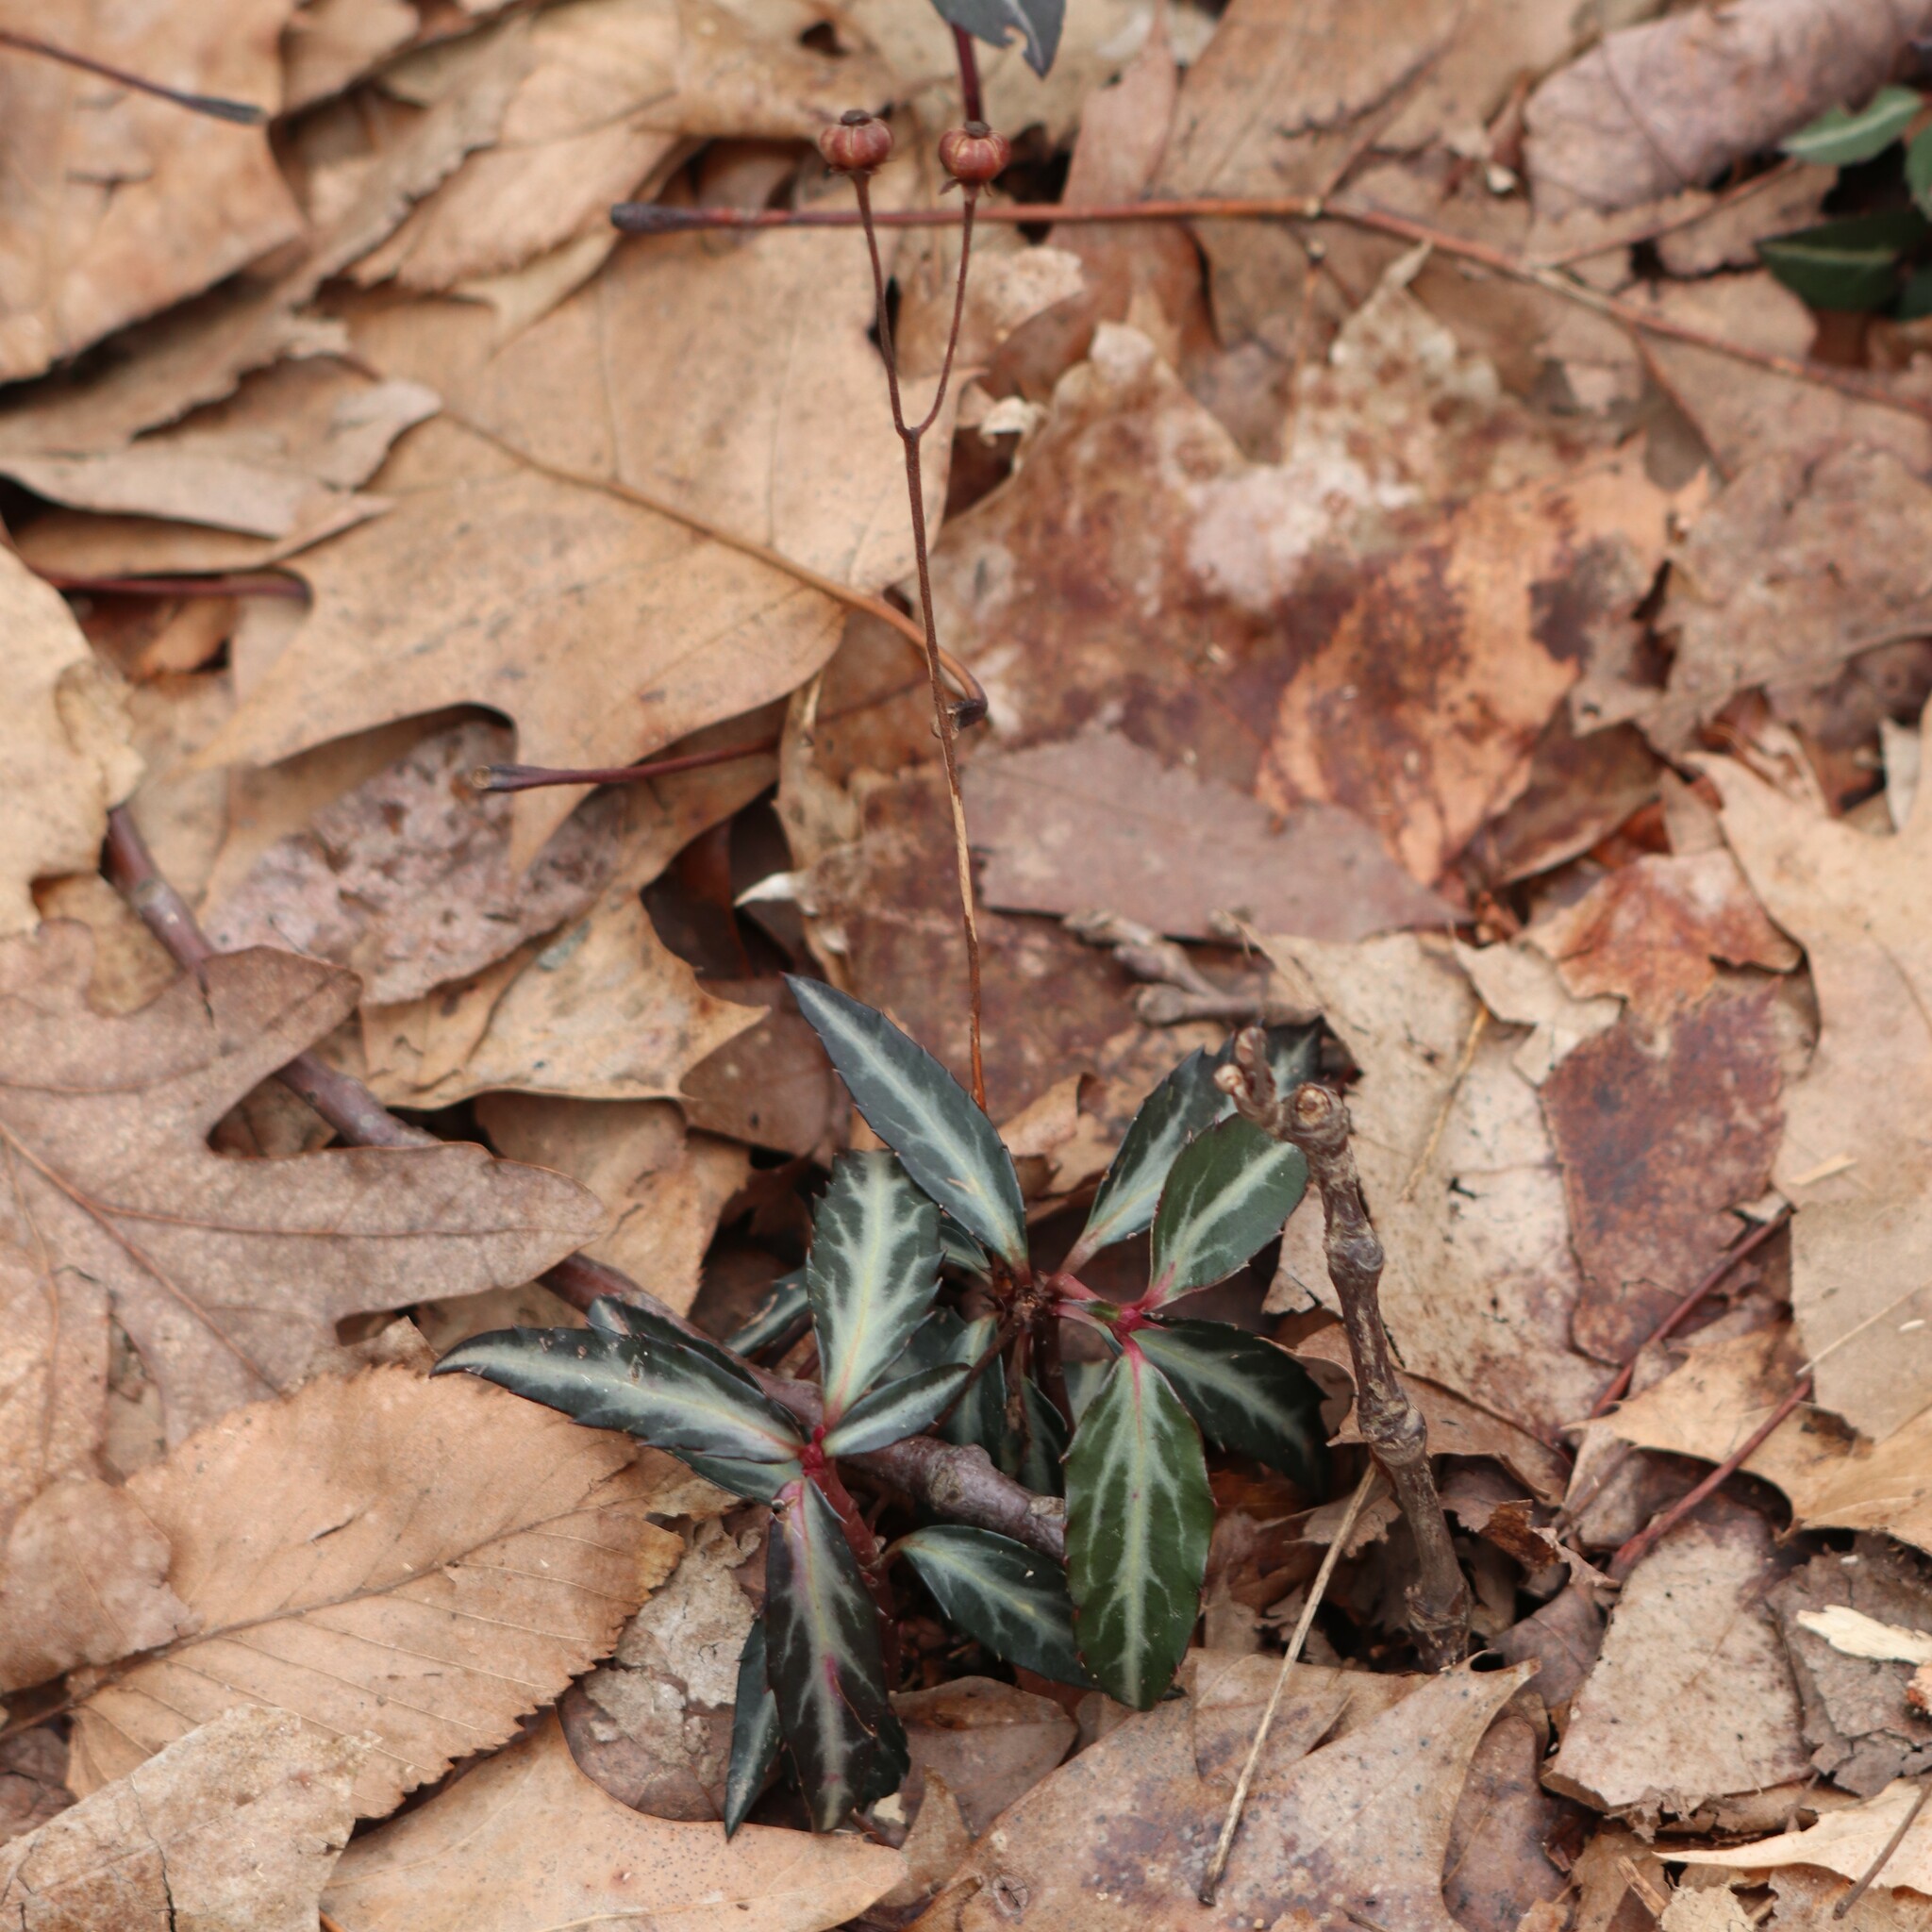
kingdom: Plantae
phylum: Tracheophyta
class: Magnoliopsida
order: Ericales
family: Ericaceae
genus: Chimaphila
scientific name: Chimaphila maculata
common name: Spotted pipsissewa
